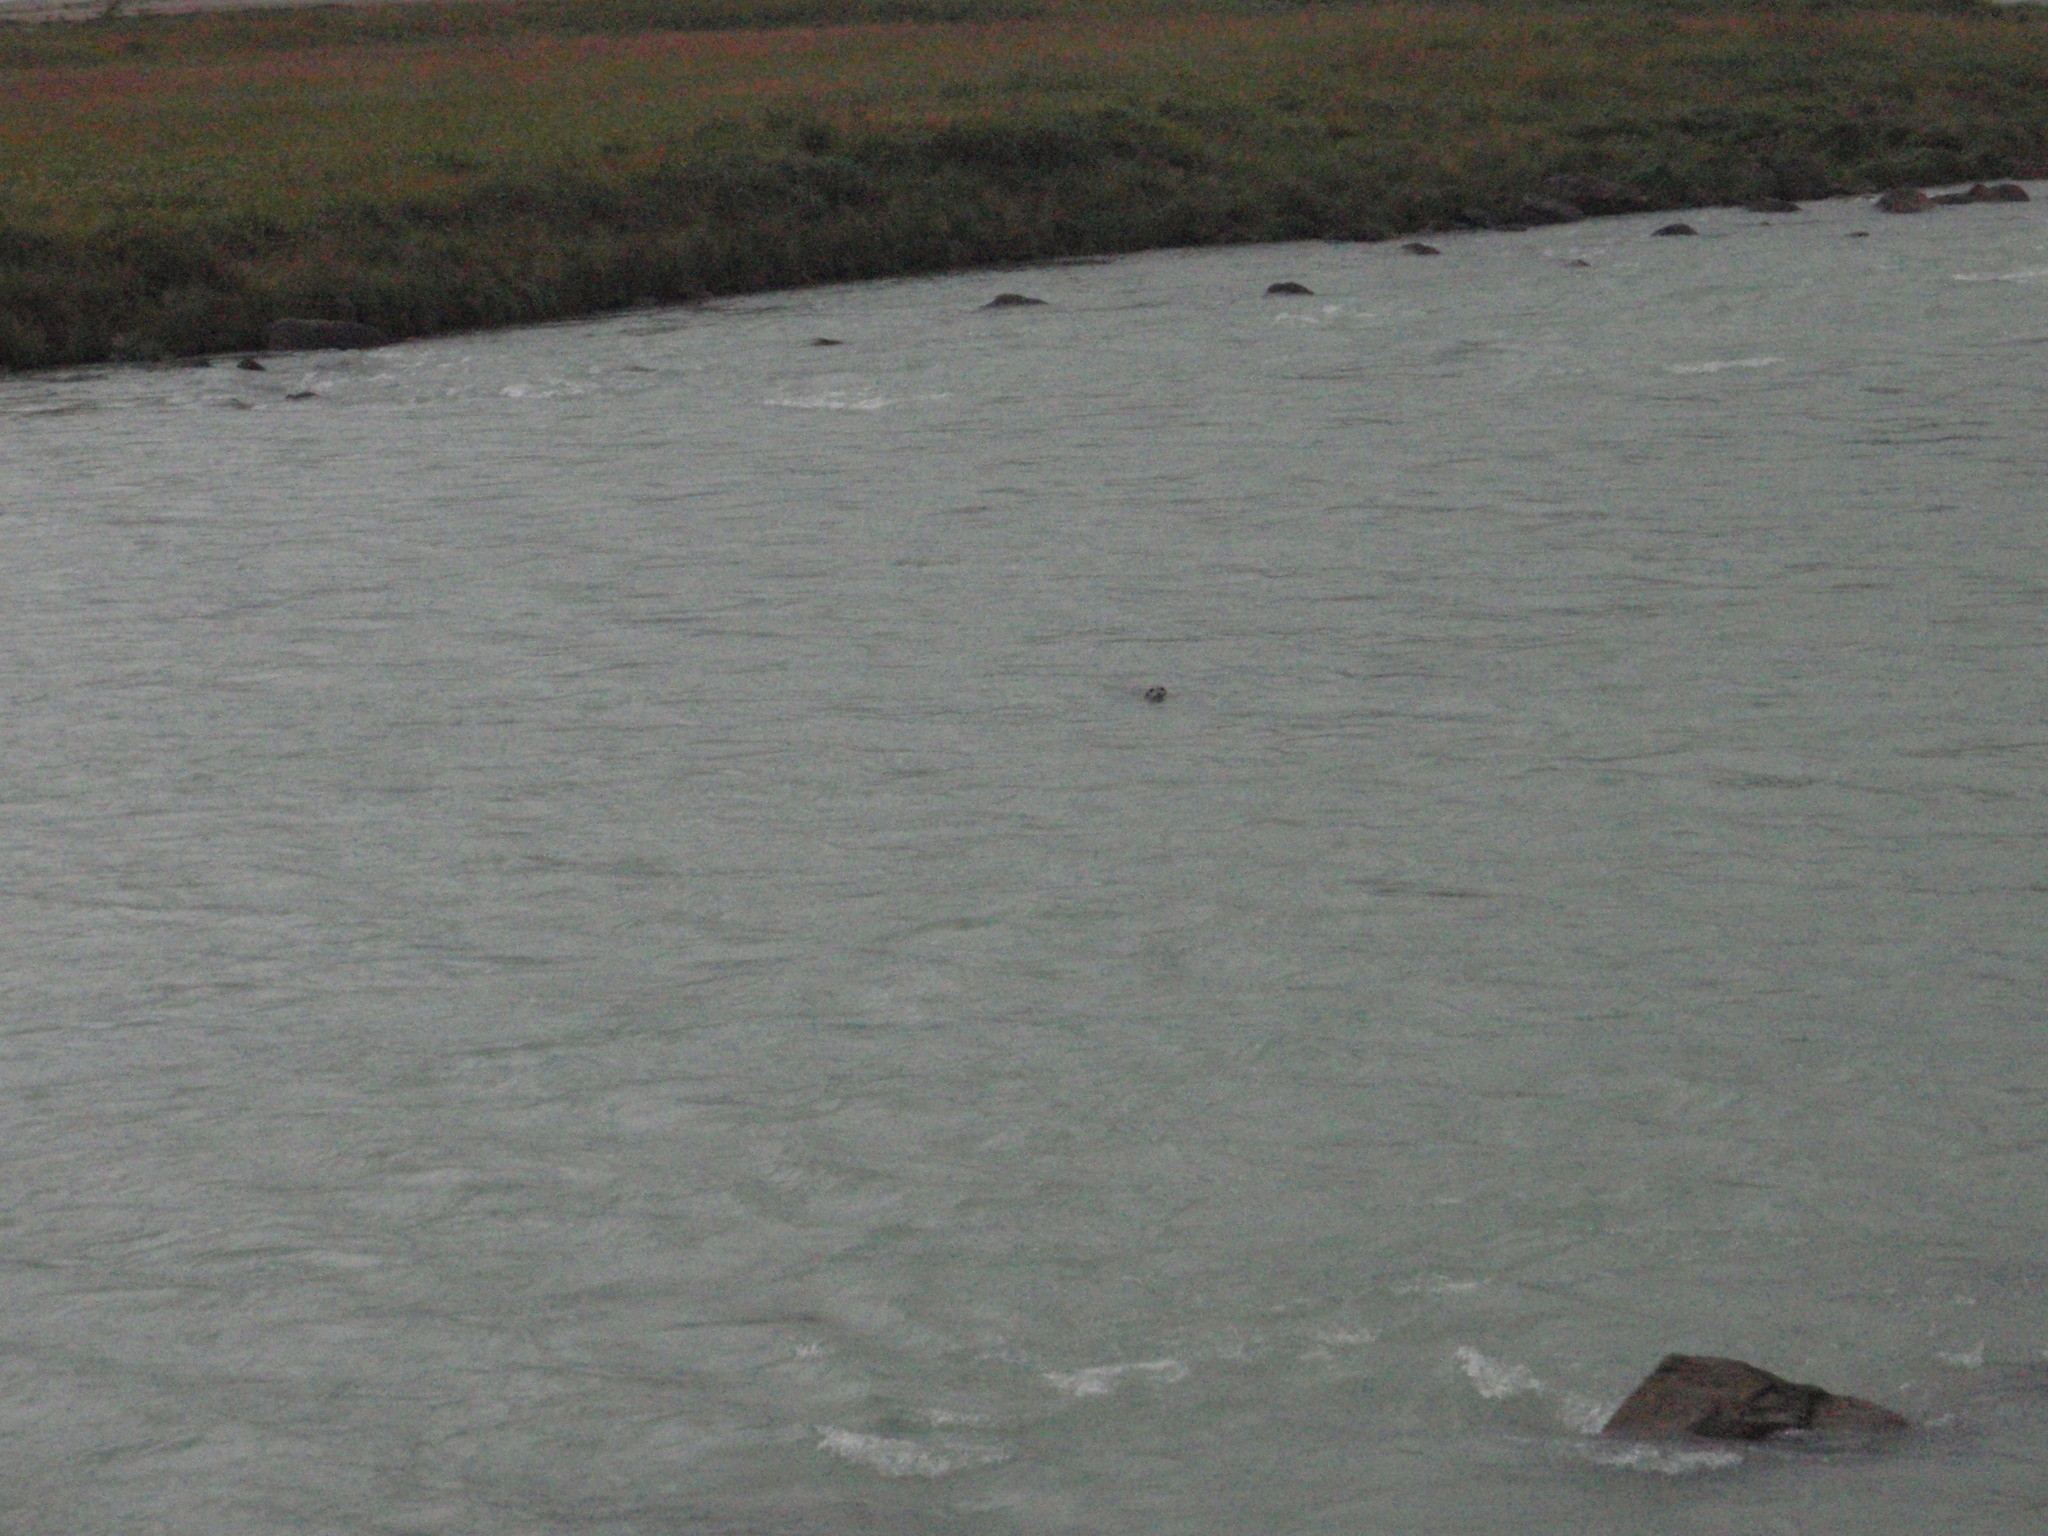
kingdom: Animalia
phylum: Chordata
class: Mammalia
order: Carnivora
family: Phocidae
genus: Phoca
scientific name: Phoca vitulina
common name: Harbor seal
